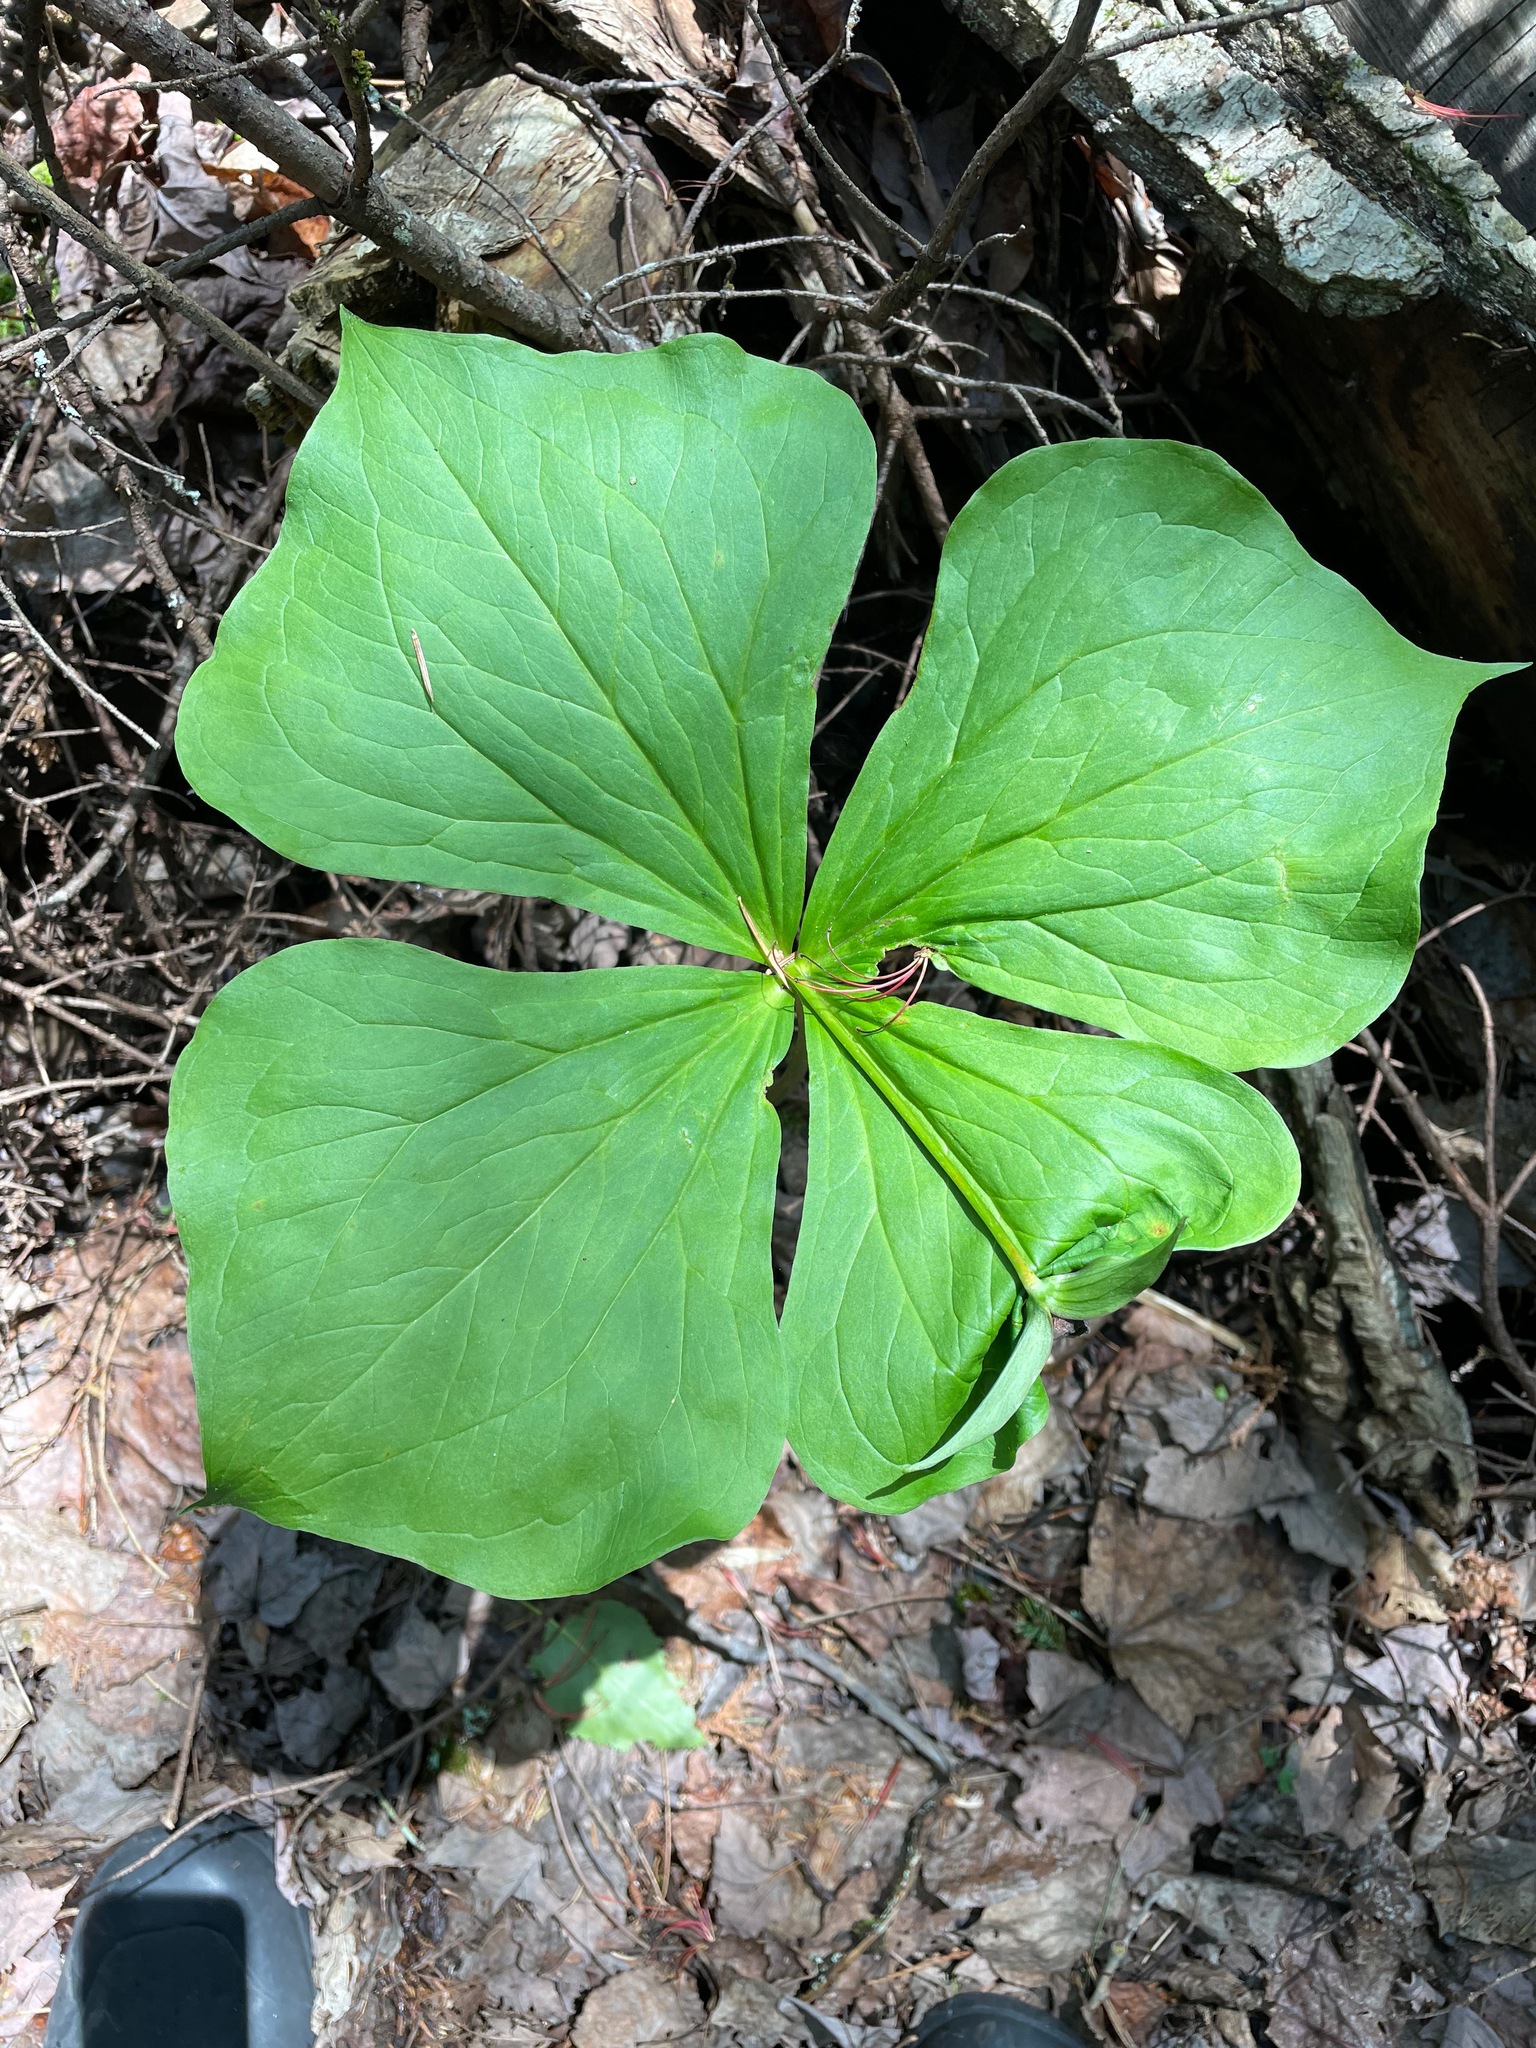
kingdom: Plantae
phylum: Tracheophyta
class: Liliopsida
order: Liliales
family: Melanthiaceae
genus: Trillium
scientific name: Trillium erectum
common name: Purple trillium
